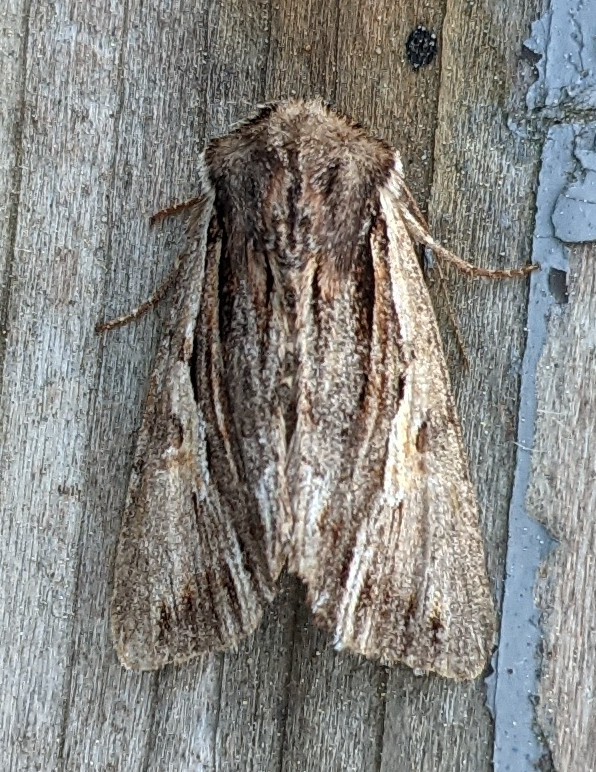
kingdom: Animalia
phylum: Arthropoda
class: Insecta
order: Lepidoptera
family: Noctuidae
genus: Achatia
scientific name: Achatia evicta
